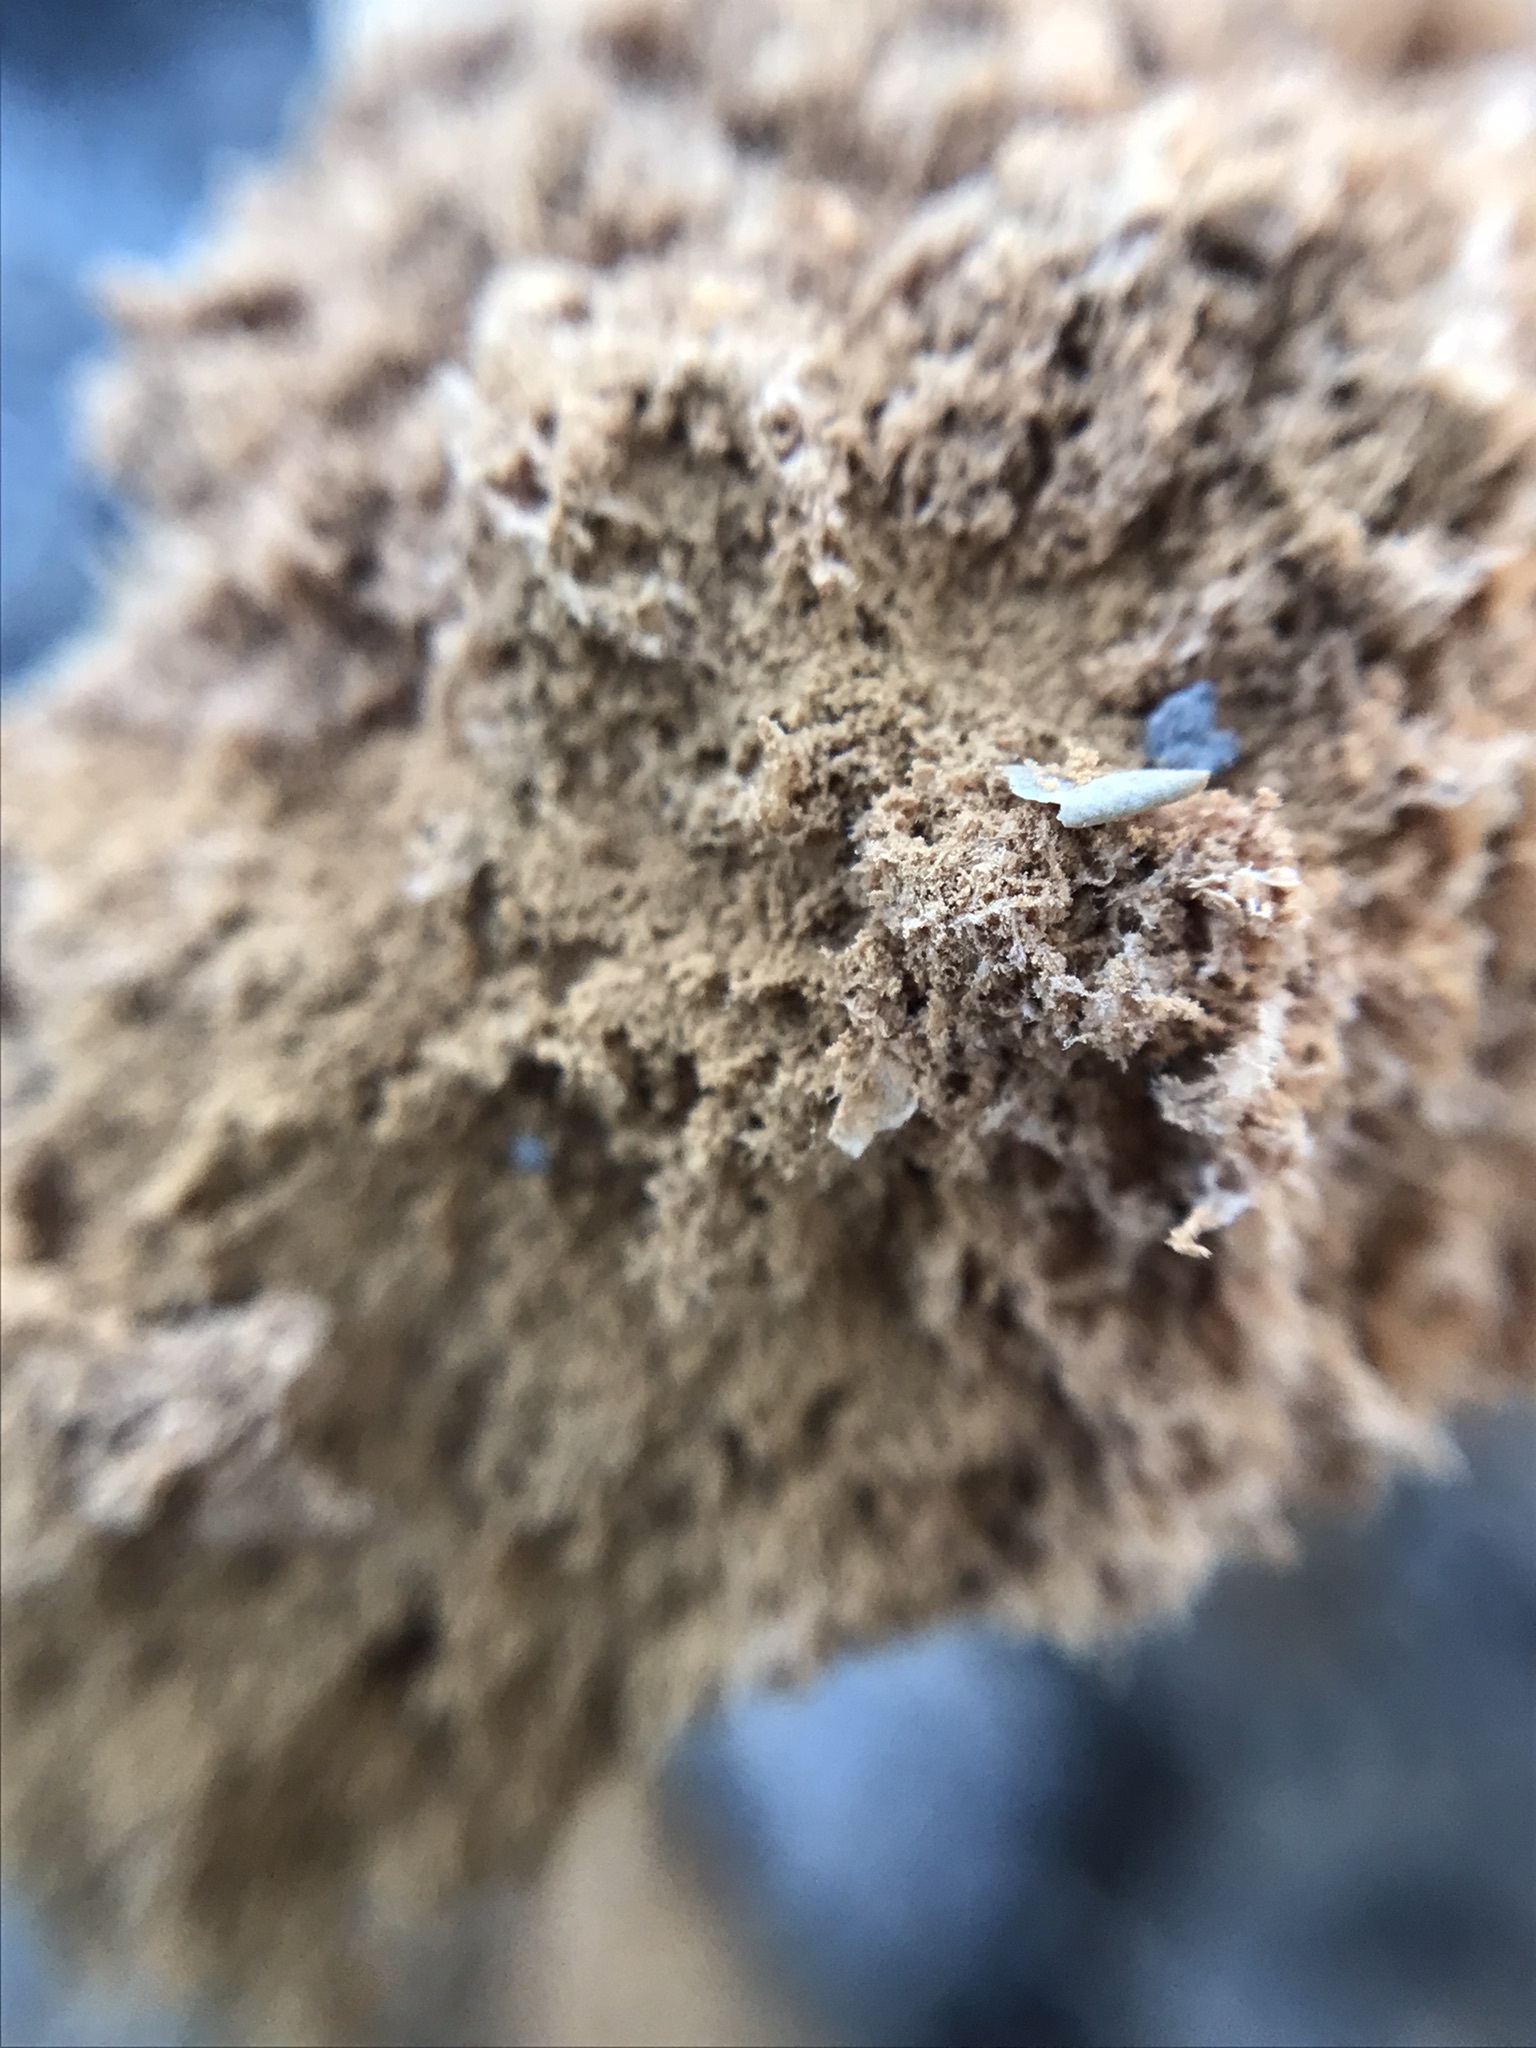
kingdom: Fungi
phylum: Basidiomycota
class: Agaricomycetes
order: Agaricales
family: Agaricaceae
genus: Battarrea
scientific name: Battarrea phalloides
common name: Sandy stiltball
